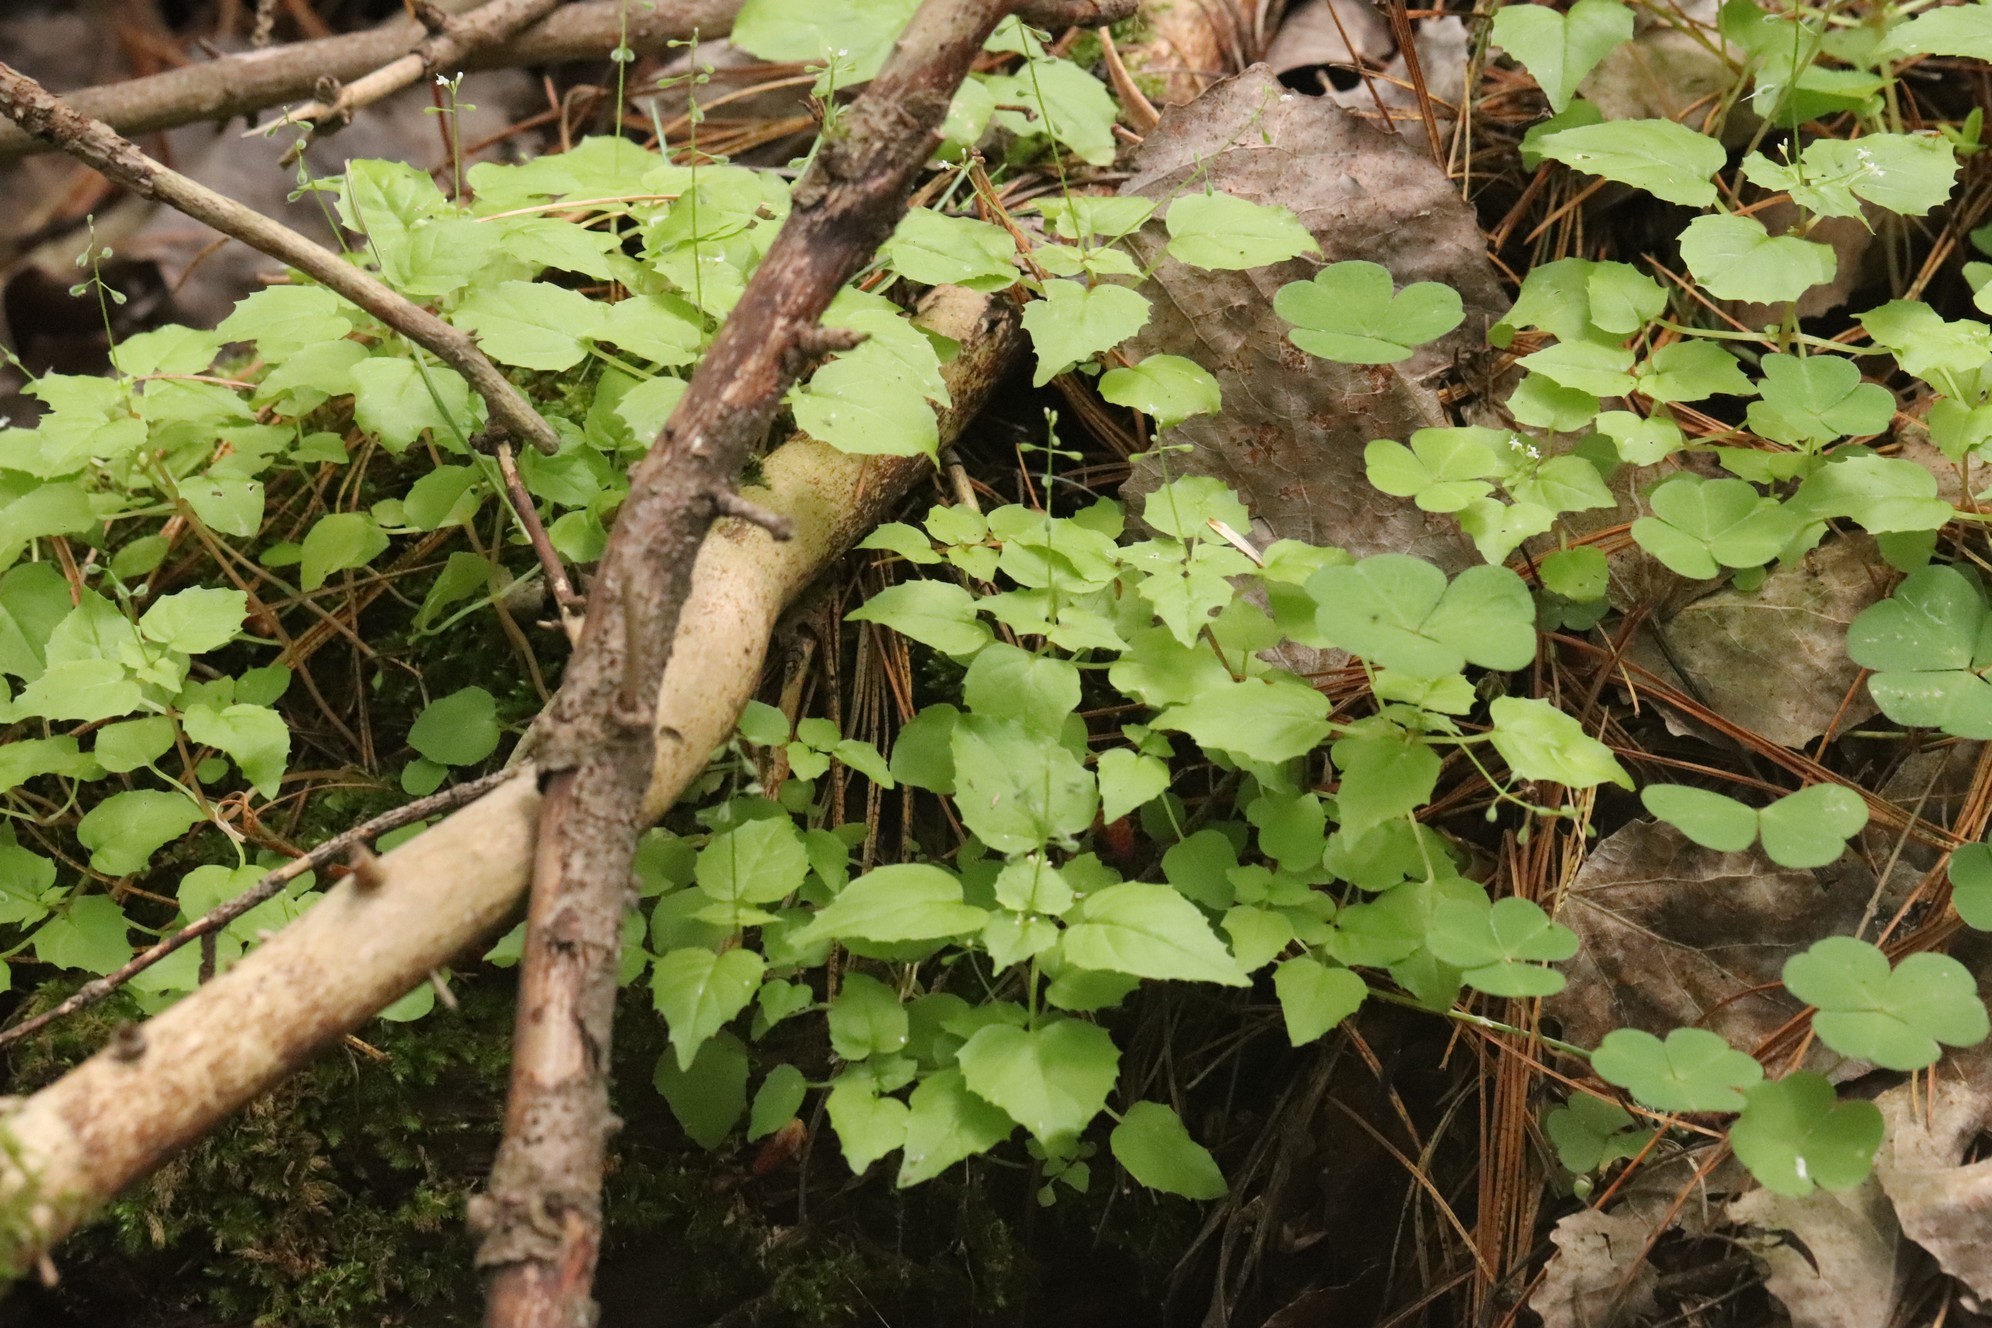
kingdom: Plantae
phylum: Tracheophyta
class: Magnoliopsida
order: Myrtales
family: Onagraceae
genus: Circaea
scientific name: Circaea alpina
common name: Alpine enchanter's-nightshade
